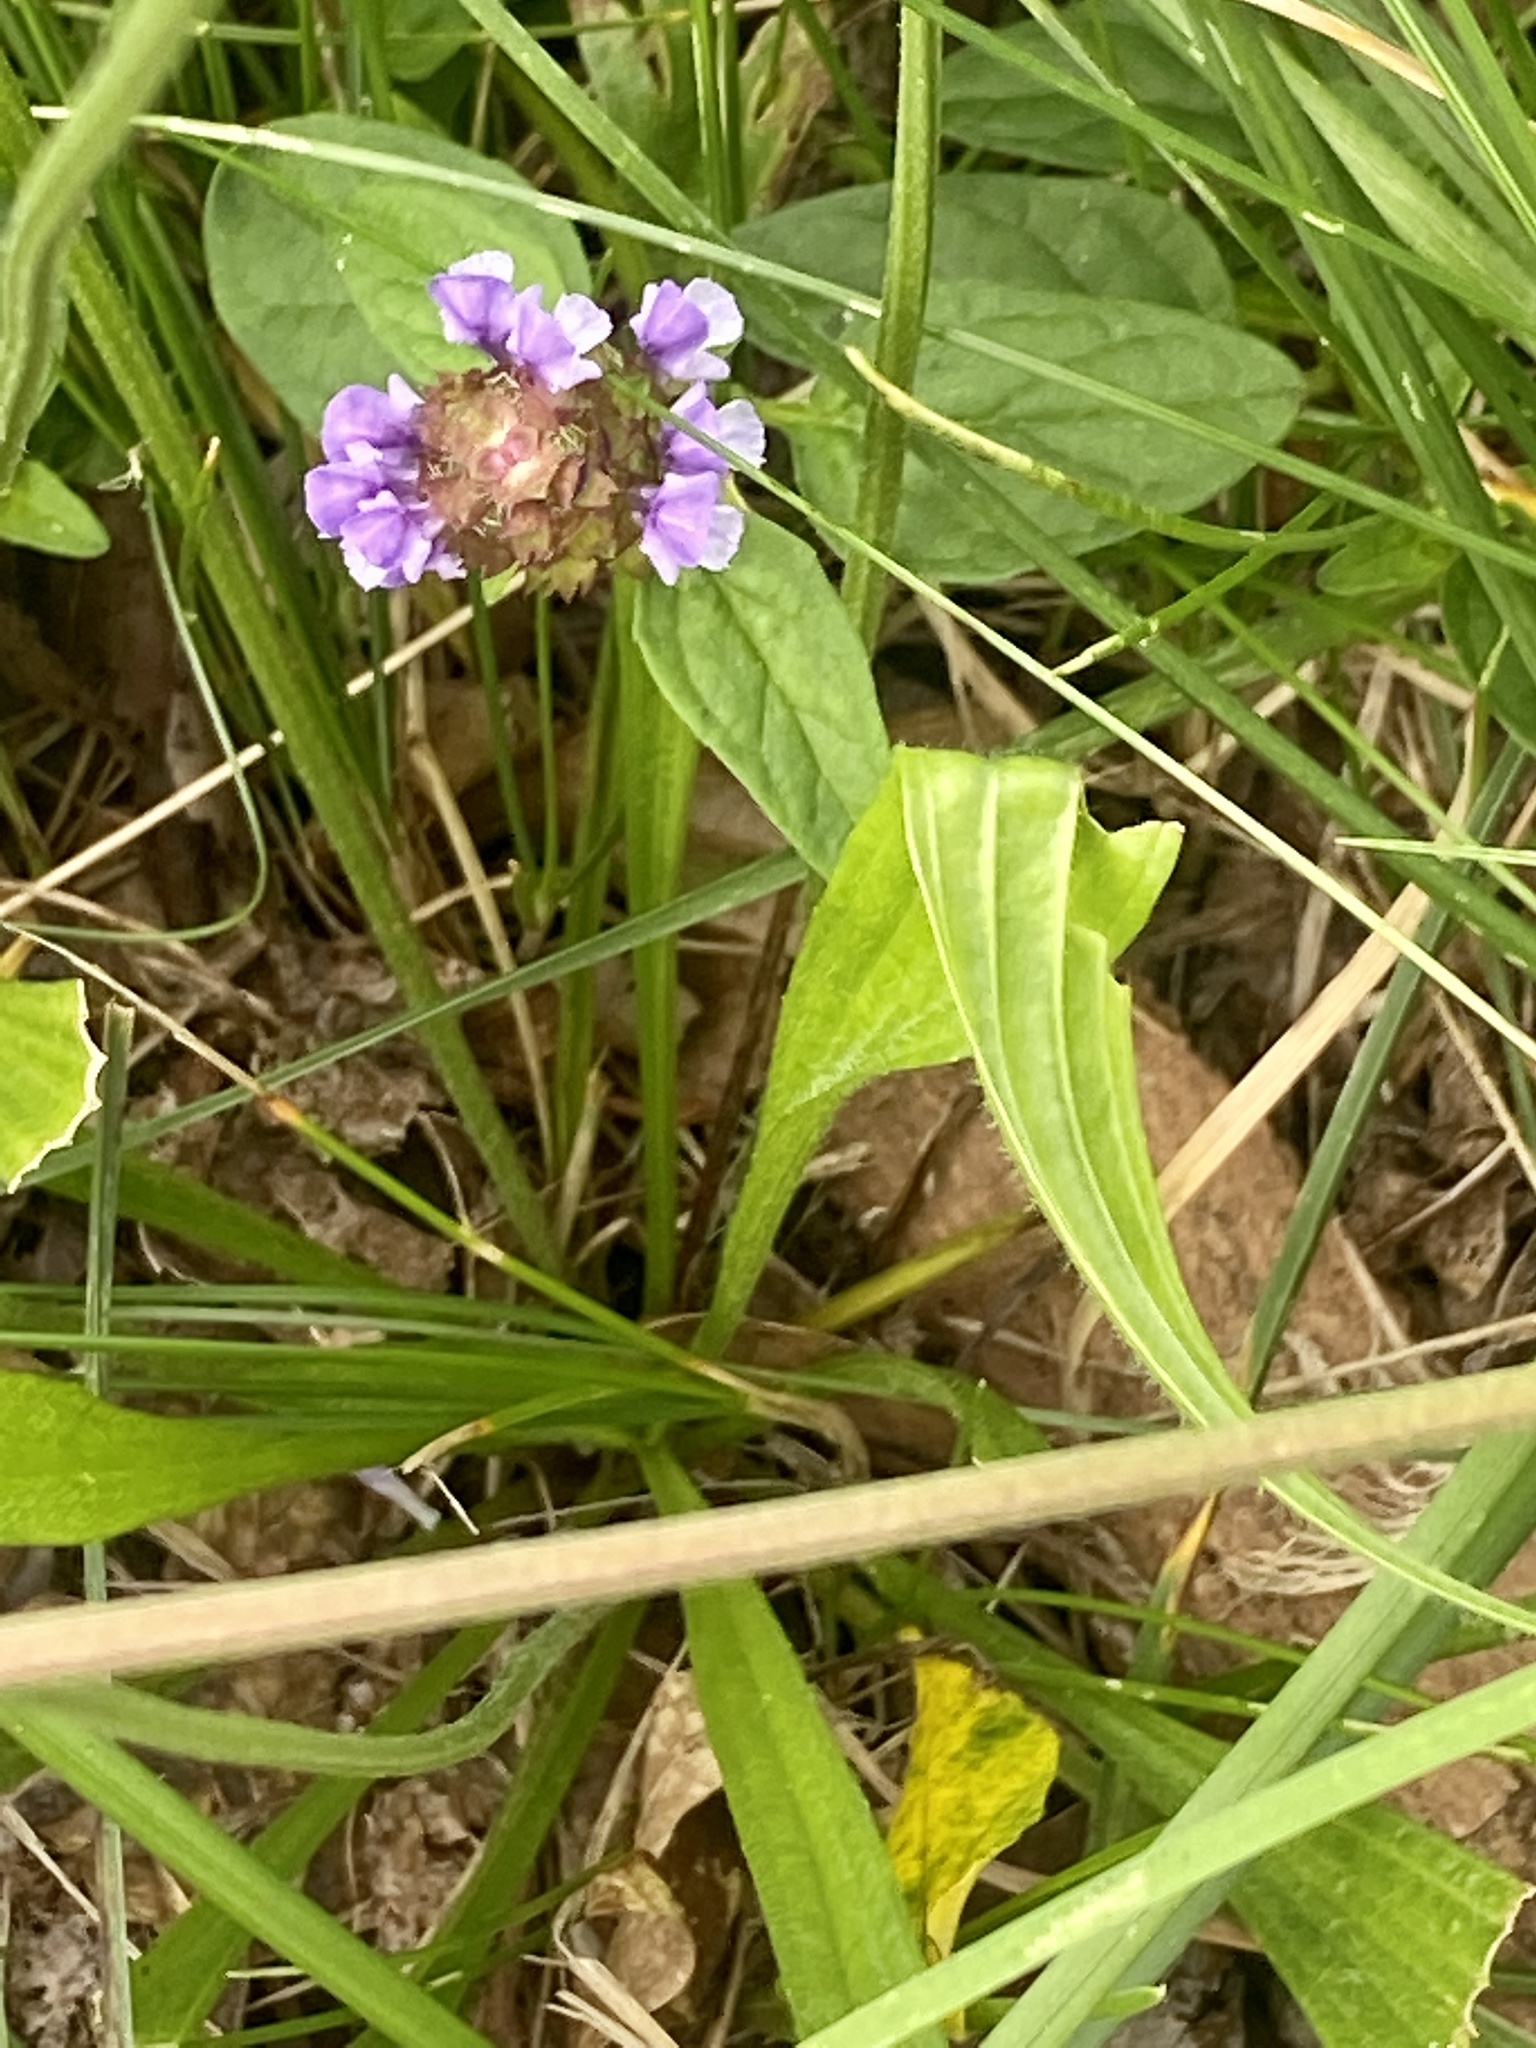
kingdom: Plantae
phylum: Tracheophyta
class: Magnoliopsida
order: Lamiales
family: Lamiaceae
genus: Prunella
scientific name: Prunella vulgaris
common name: Heal-all
